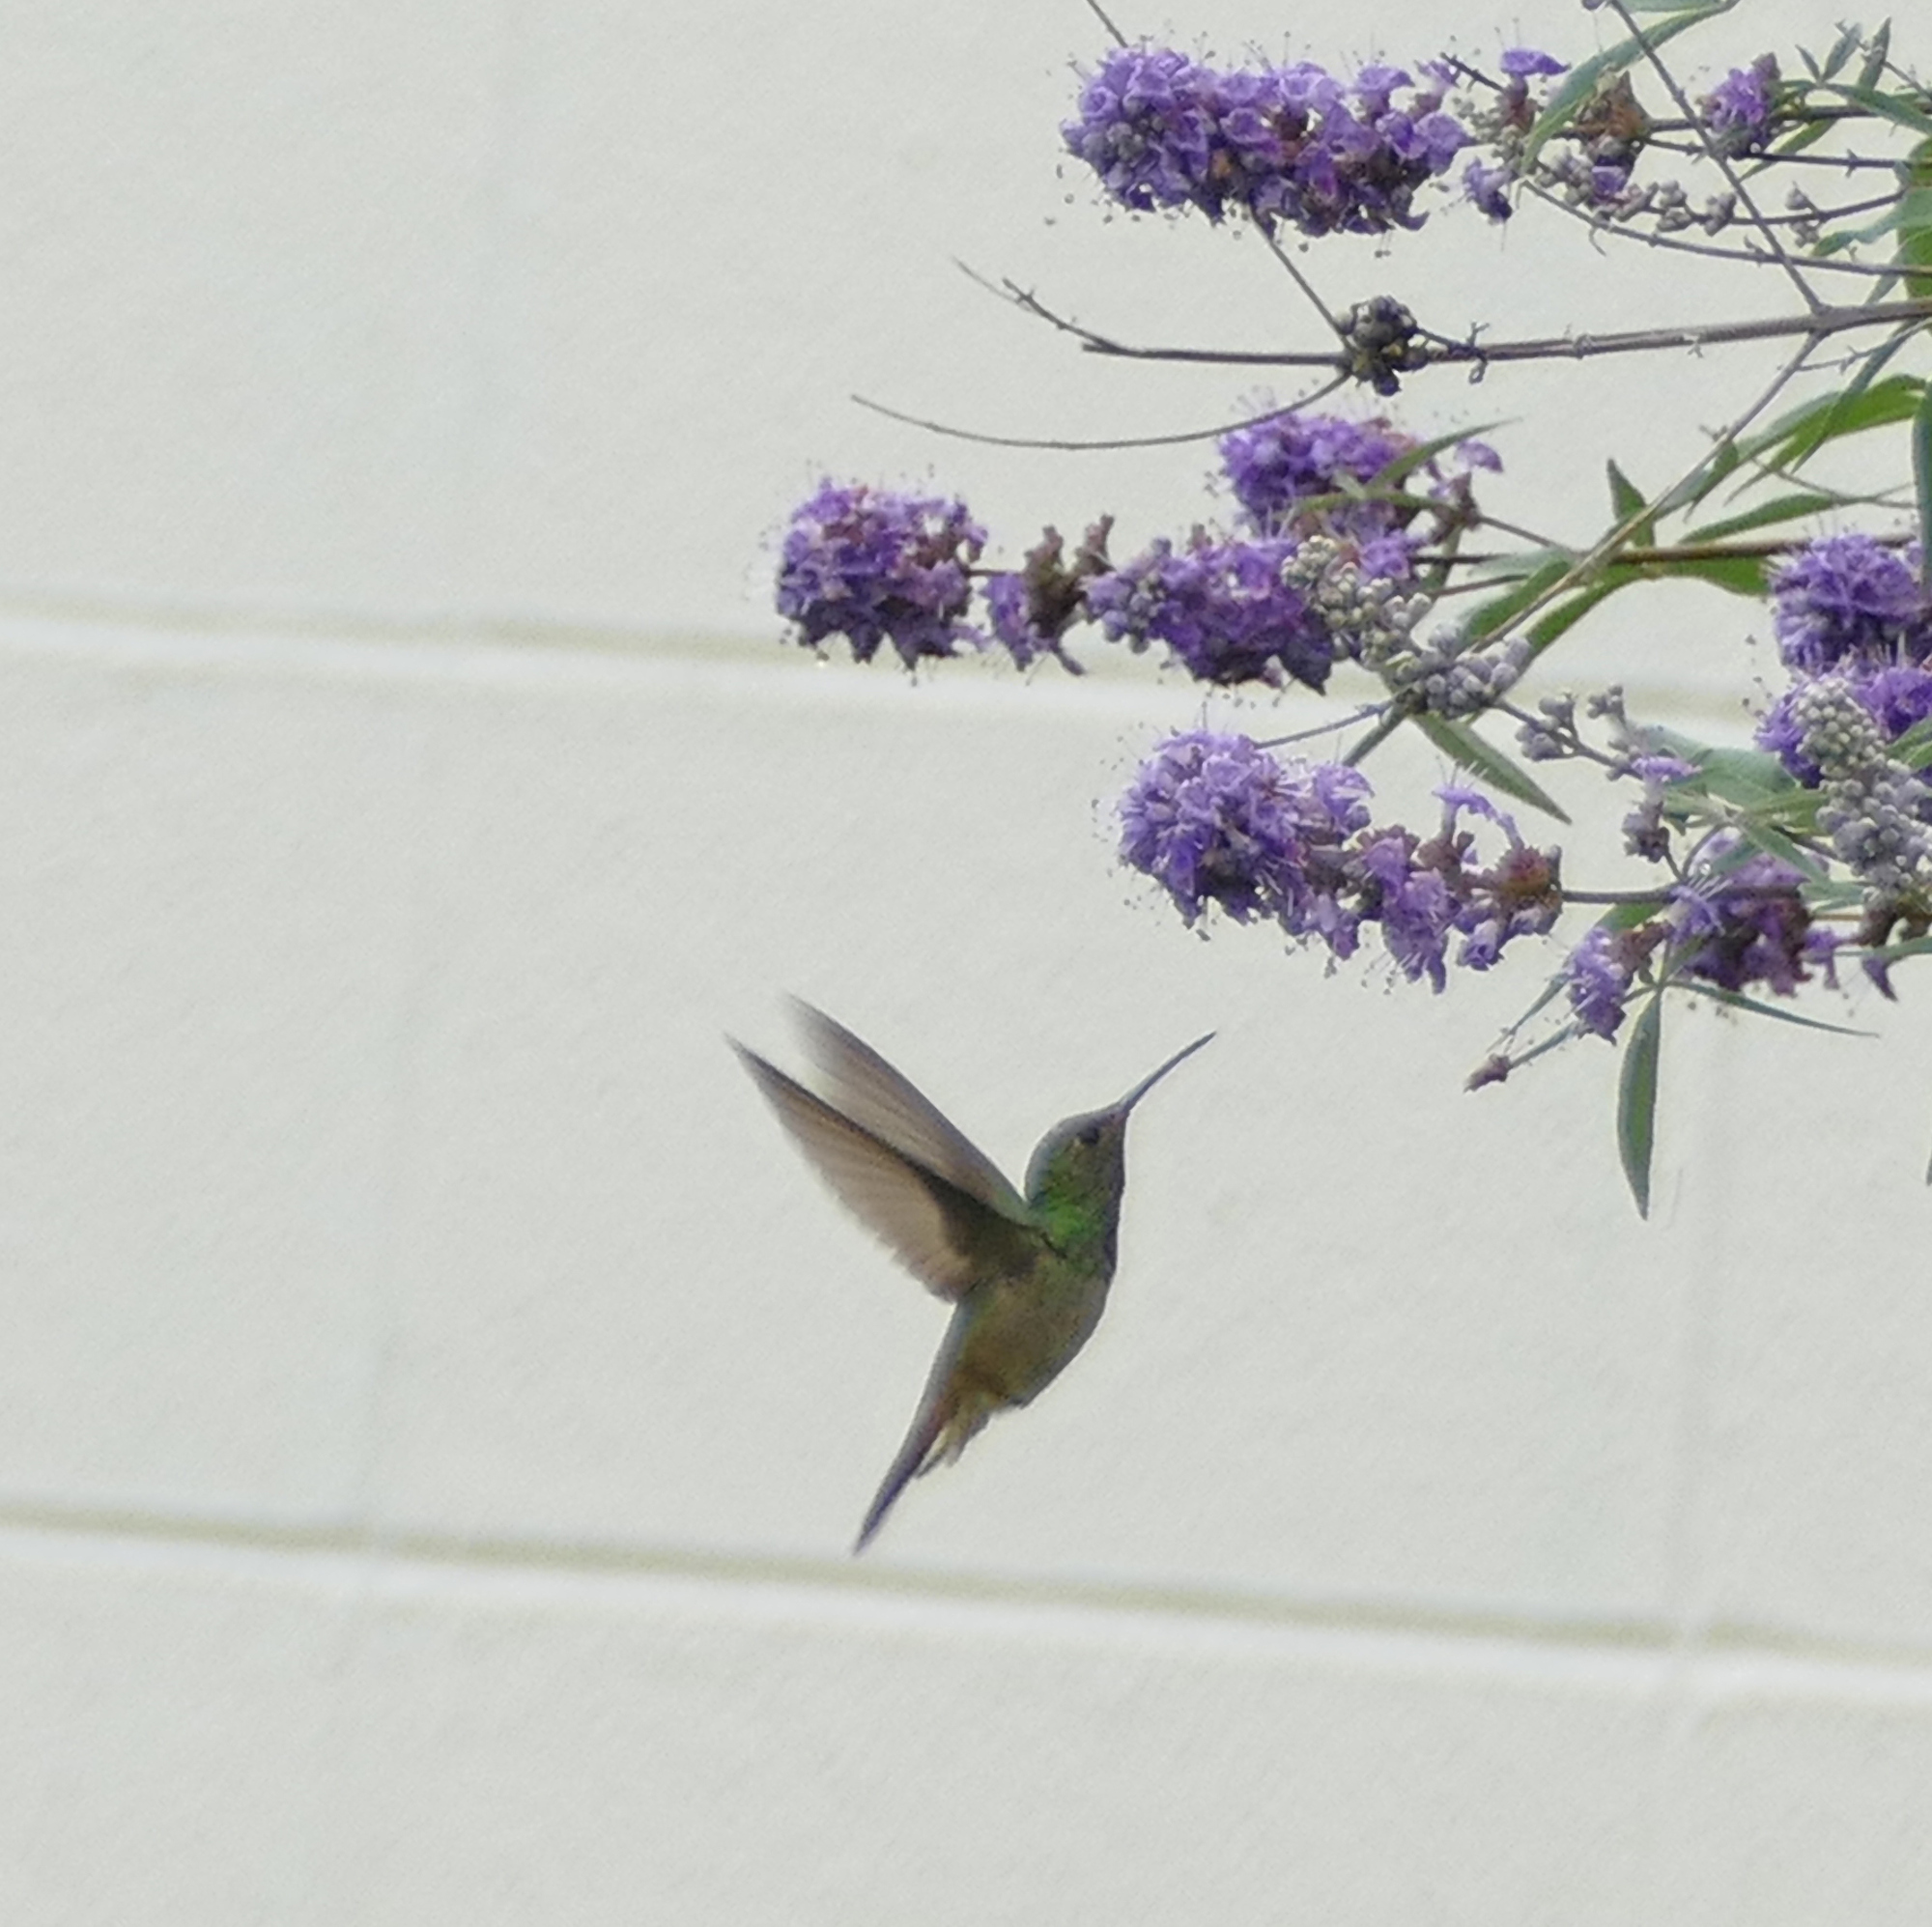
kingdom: Animalia
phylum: Chordata
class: Aves
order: Apodiformes
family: Trochilidae
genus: Amazilia
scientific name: Amazilia yucatanensis
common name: Buff-bellied hummingbird
